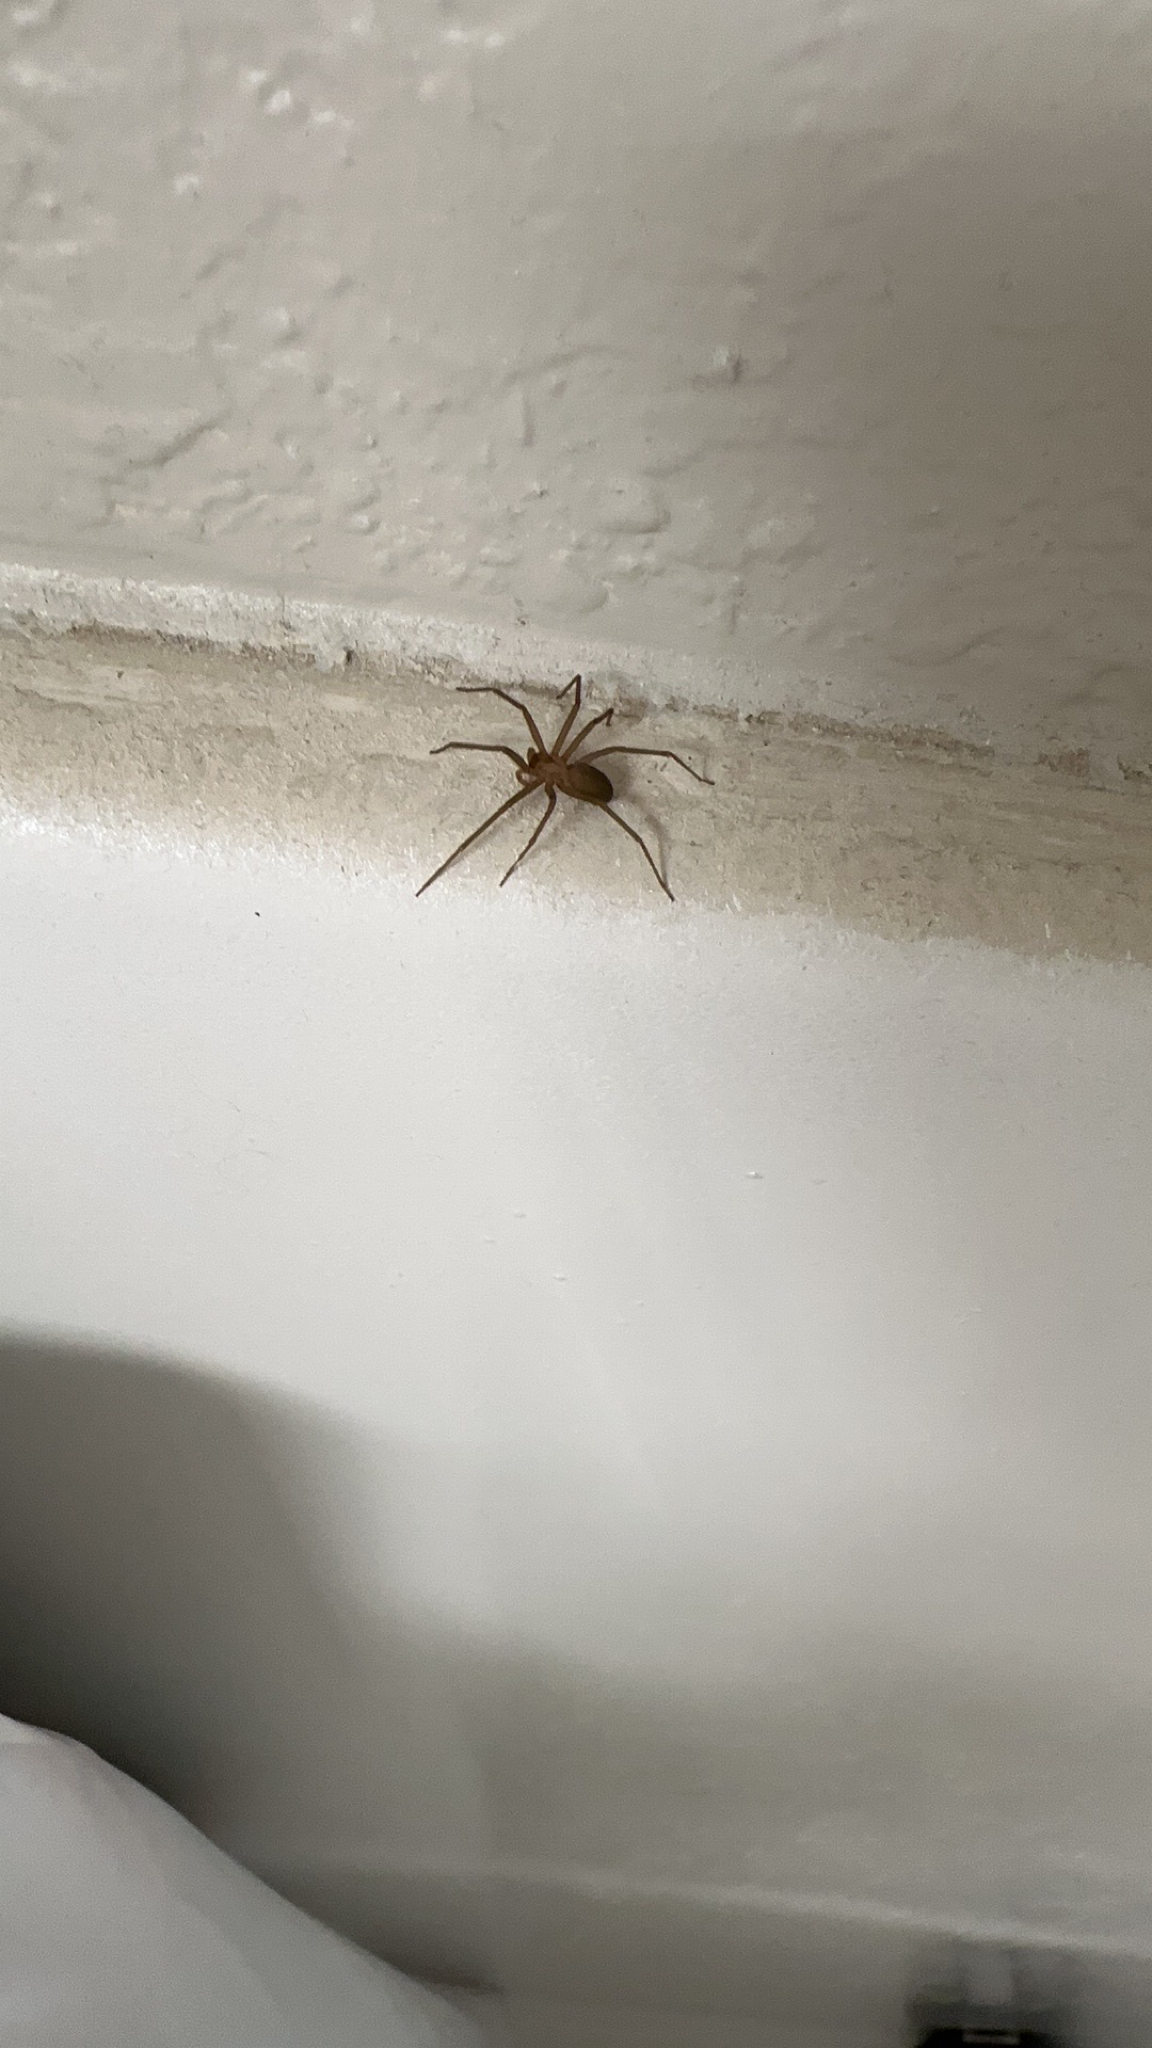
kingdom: Animalia
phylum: Arthropoda
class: Arachnida
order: Araneae
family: Sicariidae
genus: Loxosceles
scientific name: Loxosceles reclusa
